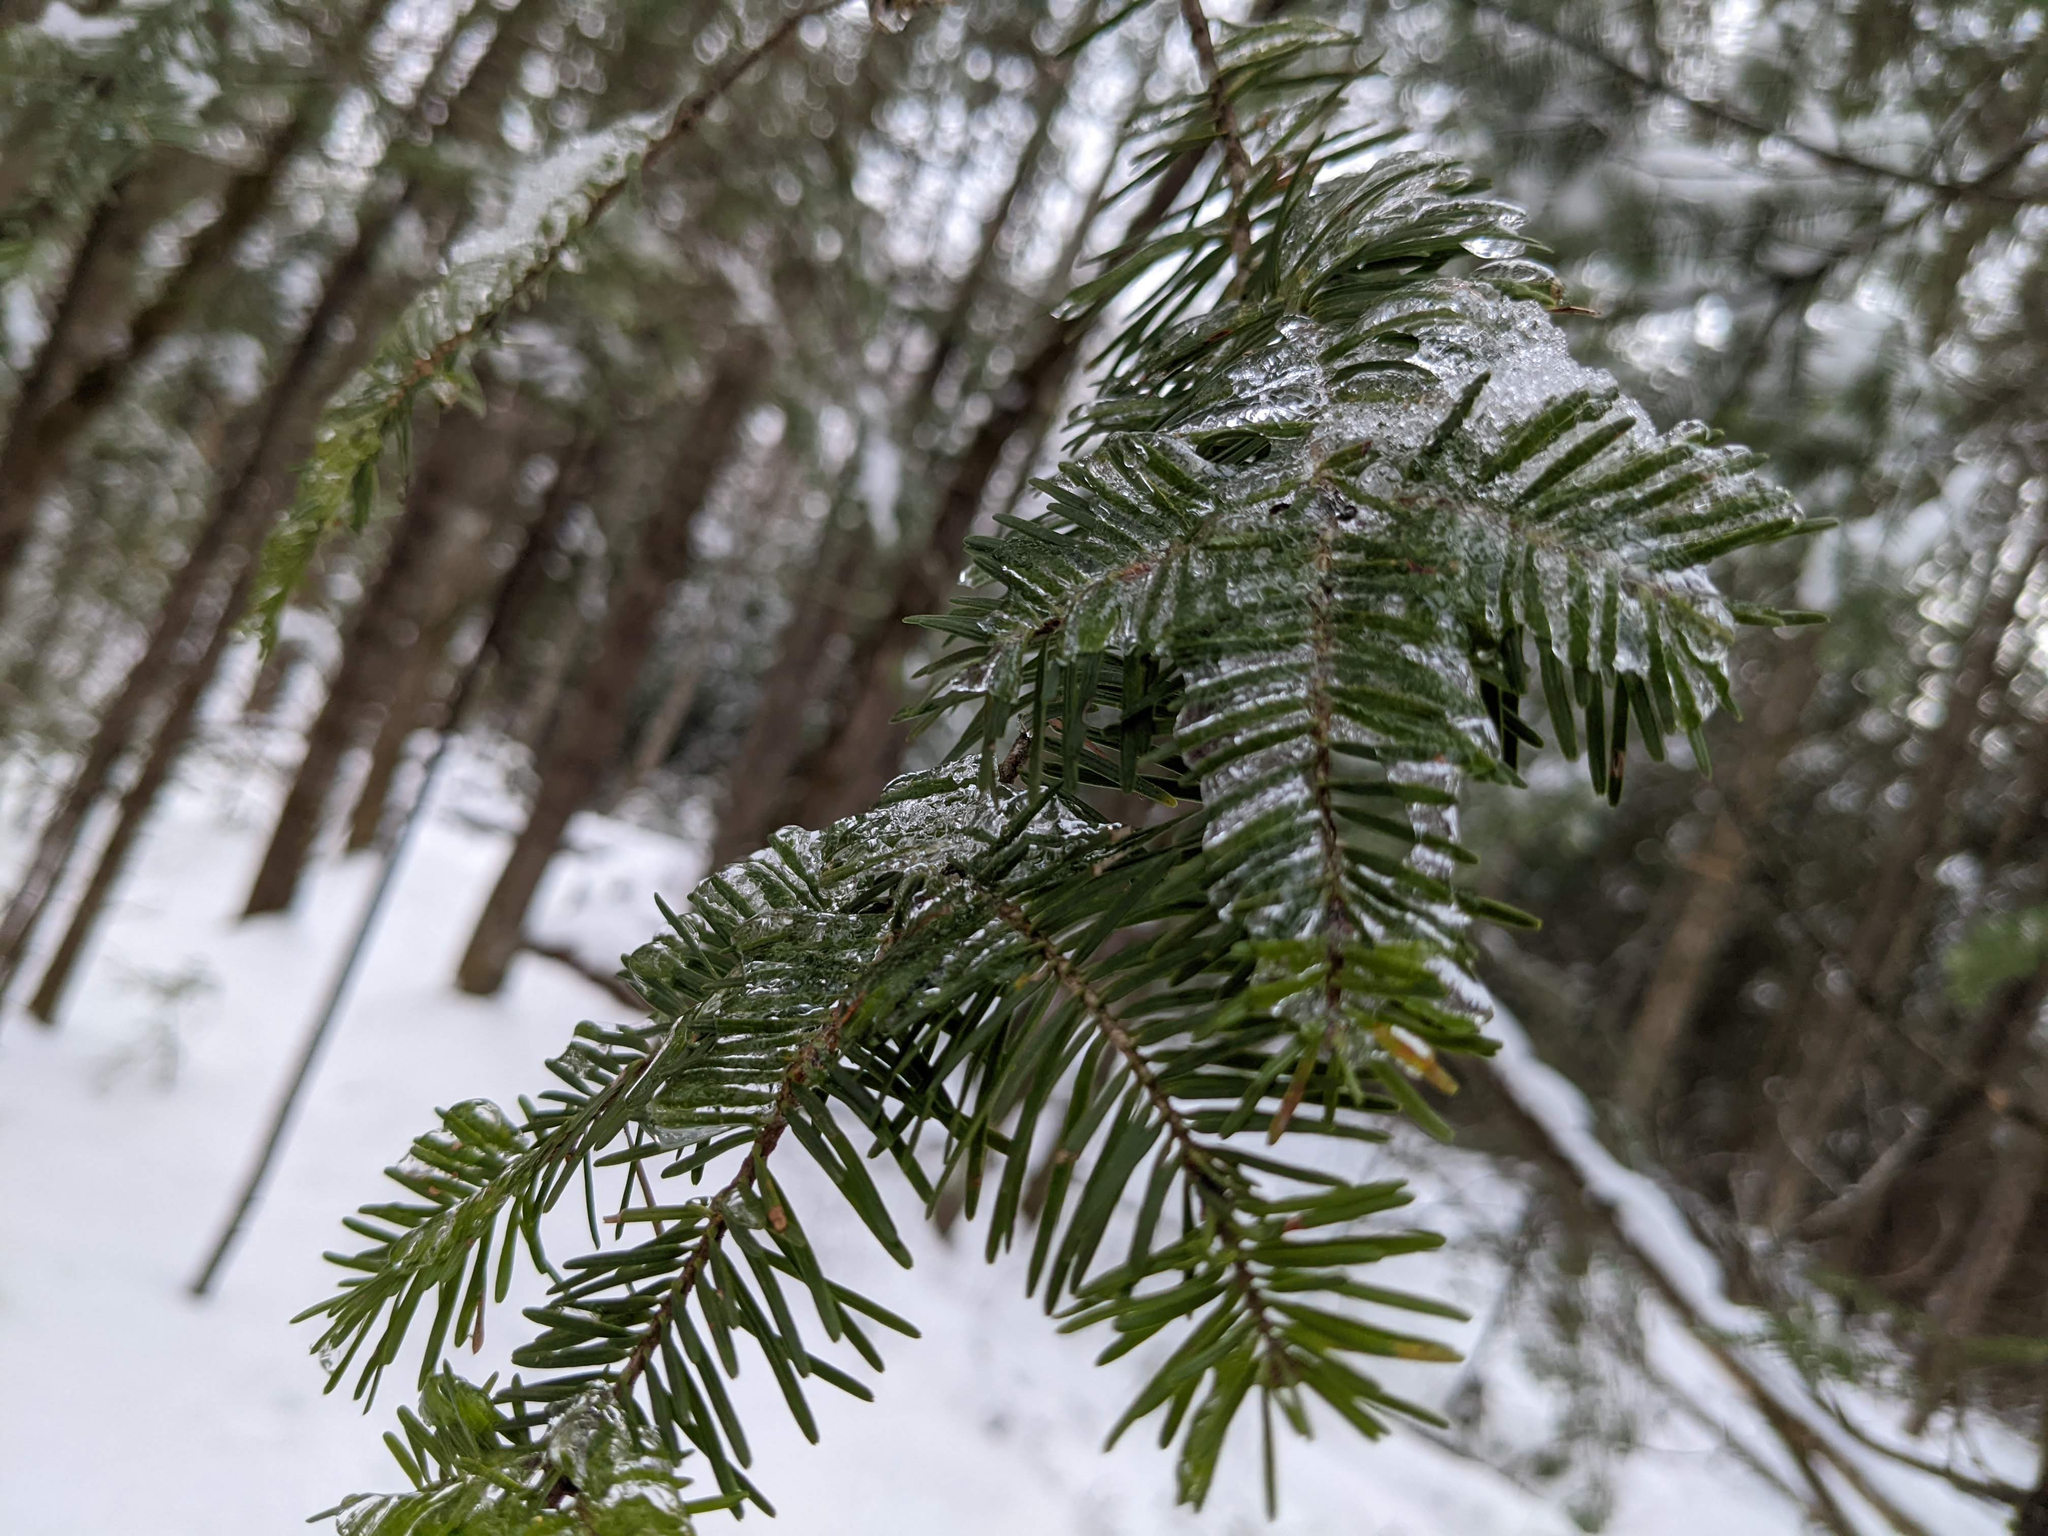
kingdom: Plantae
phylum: Tracheophyta
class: Pinopsida
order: Pinales
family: Pinaceae
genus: Abies
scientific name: Abies balsamea
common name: Balsam fir
